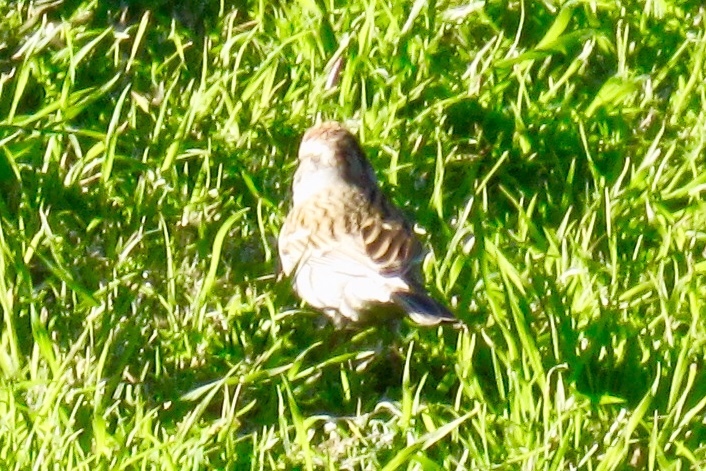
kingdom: Animalia
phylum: Chordata
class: Aves
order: Passeriformes
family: Passerellidae
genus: Spizella
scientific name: Spizella passerina
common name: Chipping sparrow
